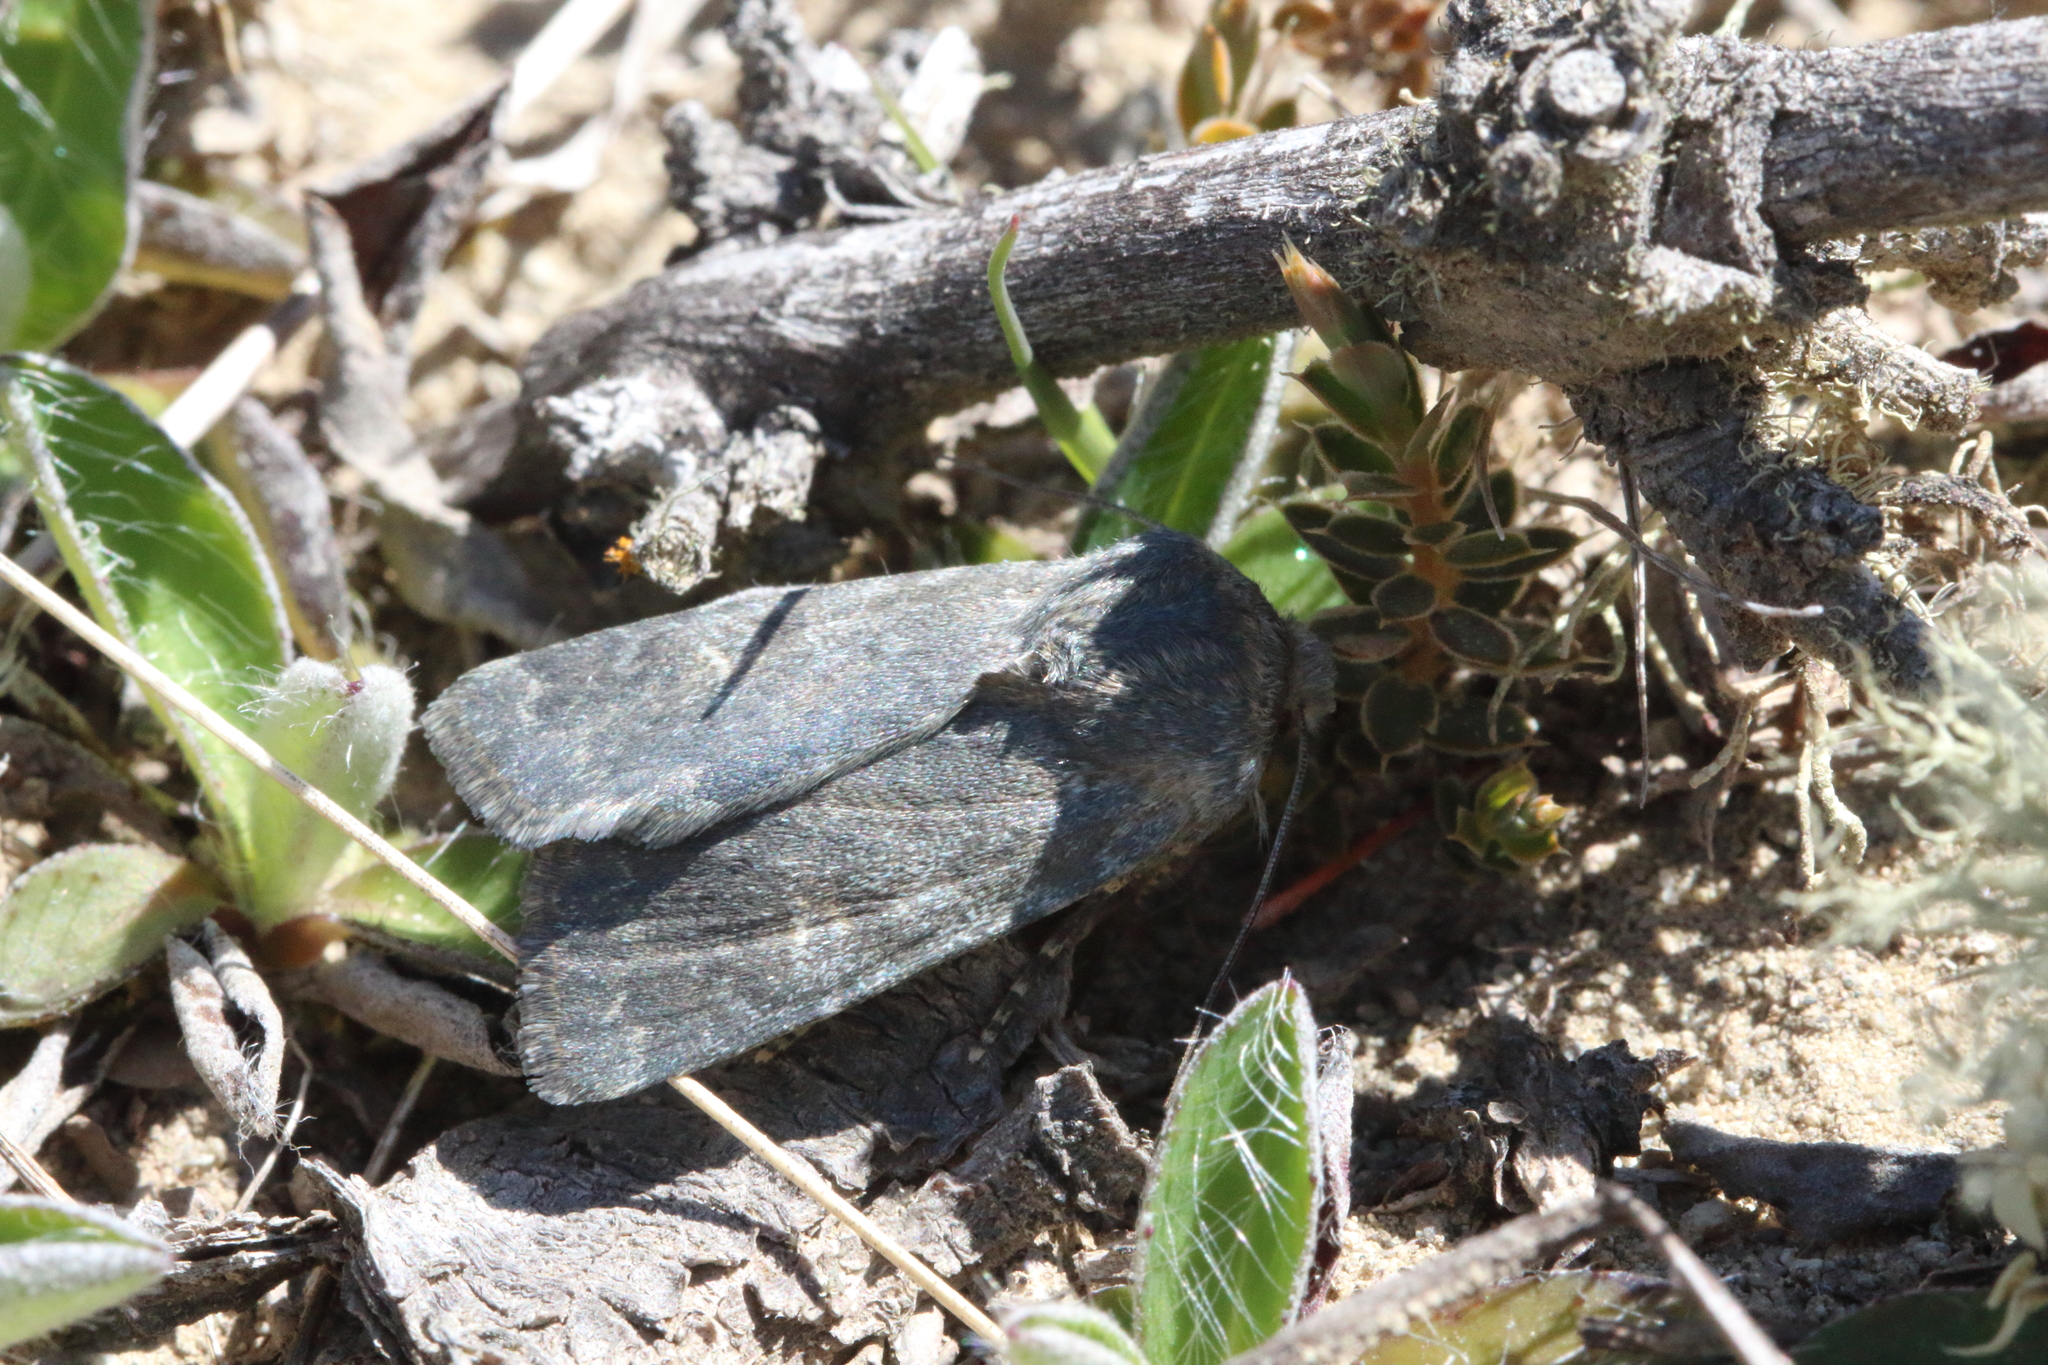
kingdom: Animalia
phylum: Arthropoda
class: Insecta
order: Lepidoptera
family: Noctuidae
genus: Physetica
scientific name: Physetica caerulea
